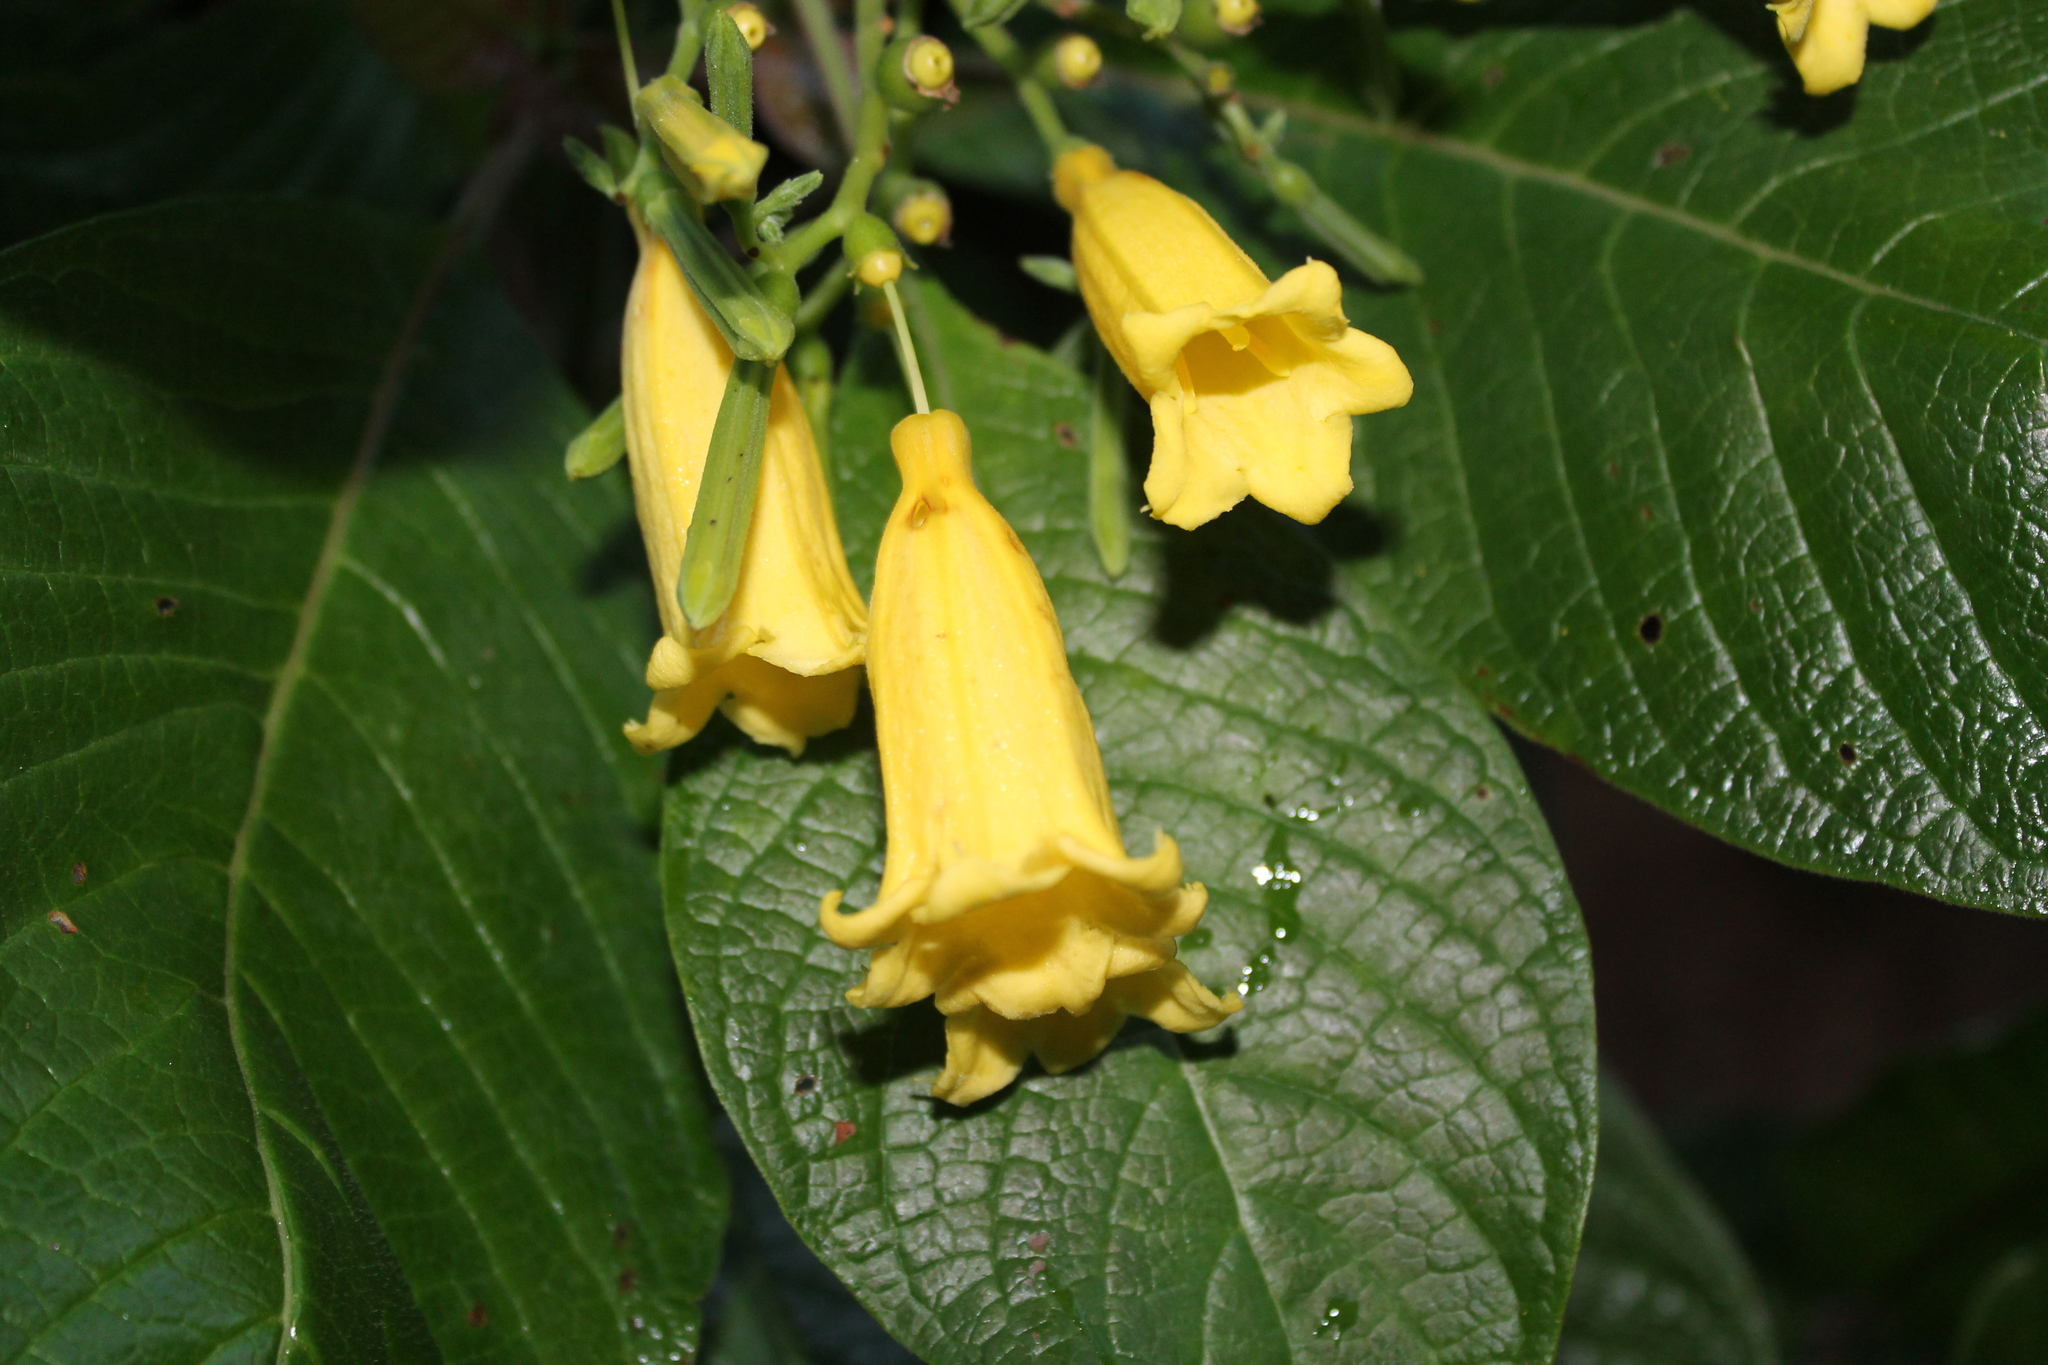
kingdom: Plantae
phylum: Tracheophyta
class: Magnoliopsida
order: Gentianales
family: Rubiaceae
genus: Hamelia
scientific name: Hamelia xorullensis
